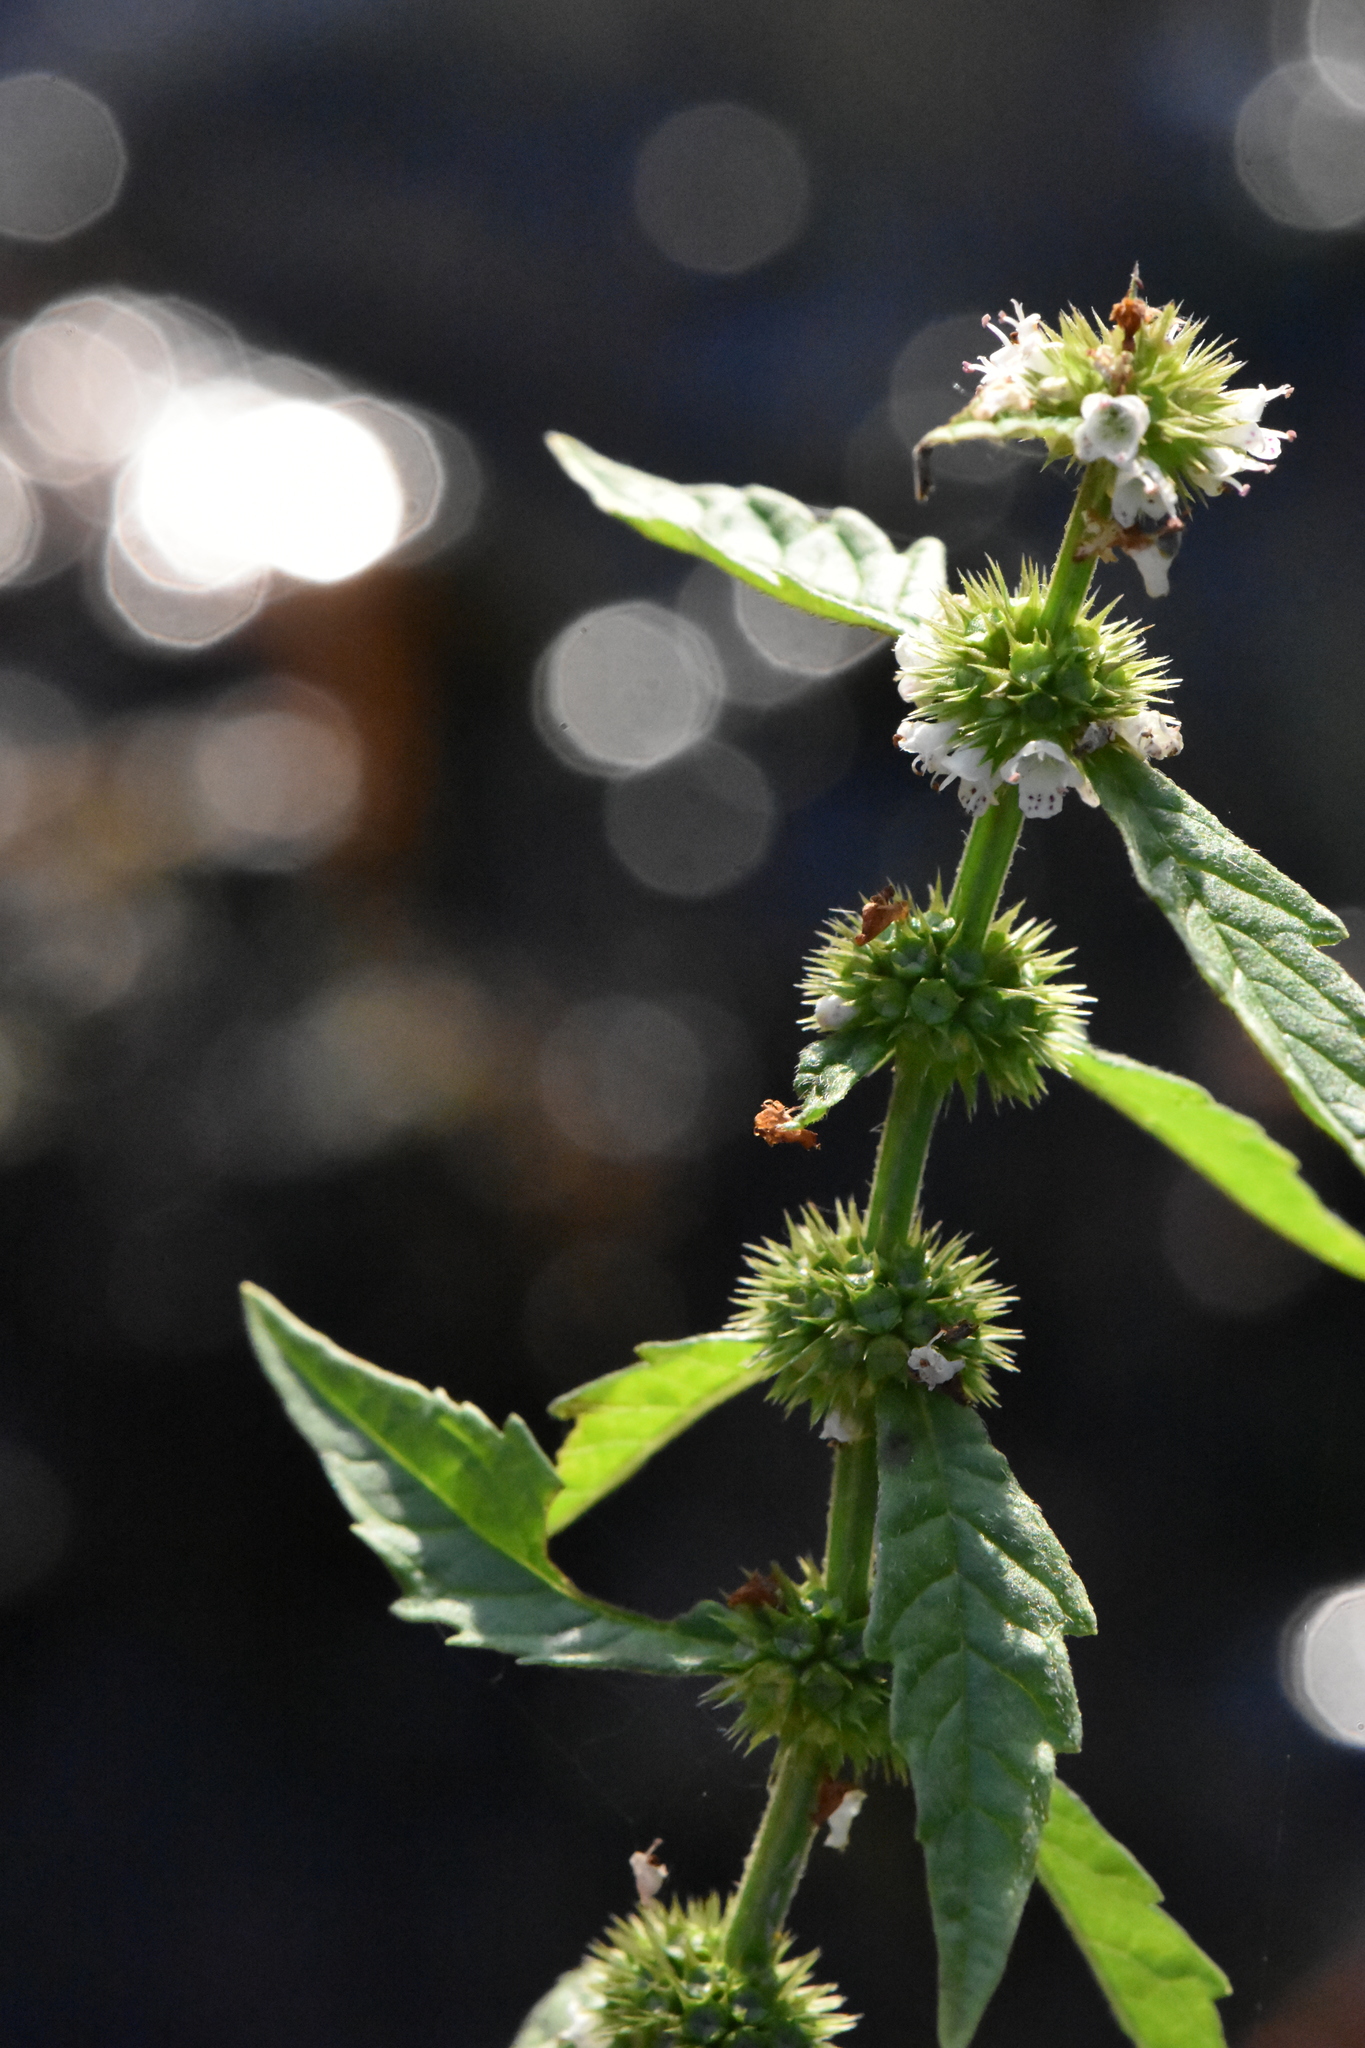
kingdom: Plantae
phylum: Tracheophyta
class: Magnoliopsida
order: Lamiales
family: Lamiaceae
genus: Lycopus
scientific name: Lycopus europaeus
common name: European bugleweed
